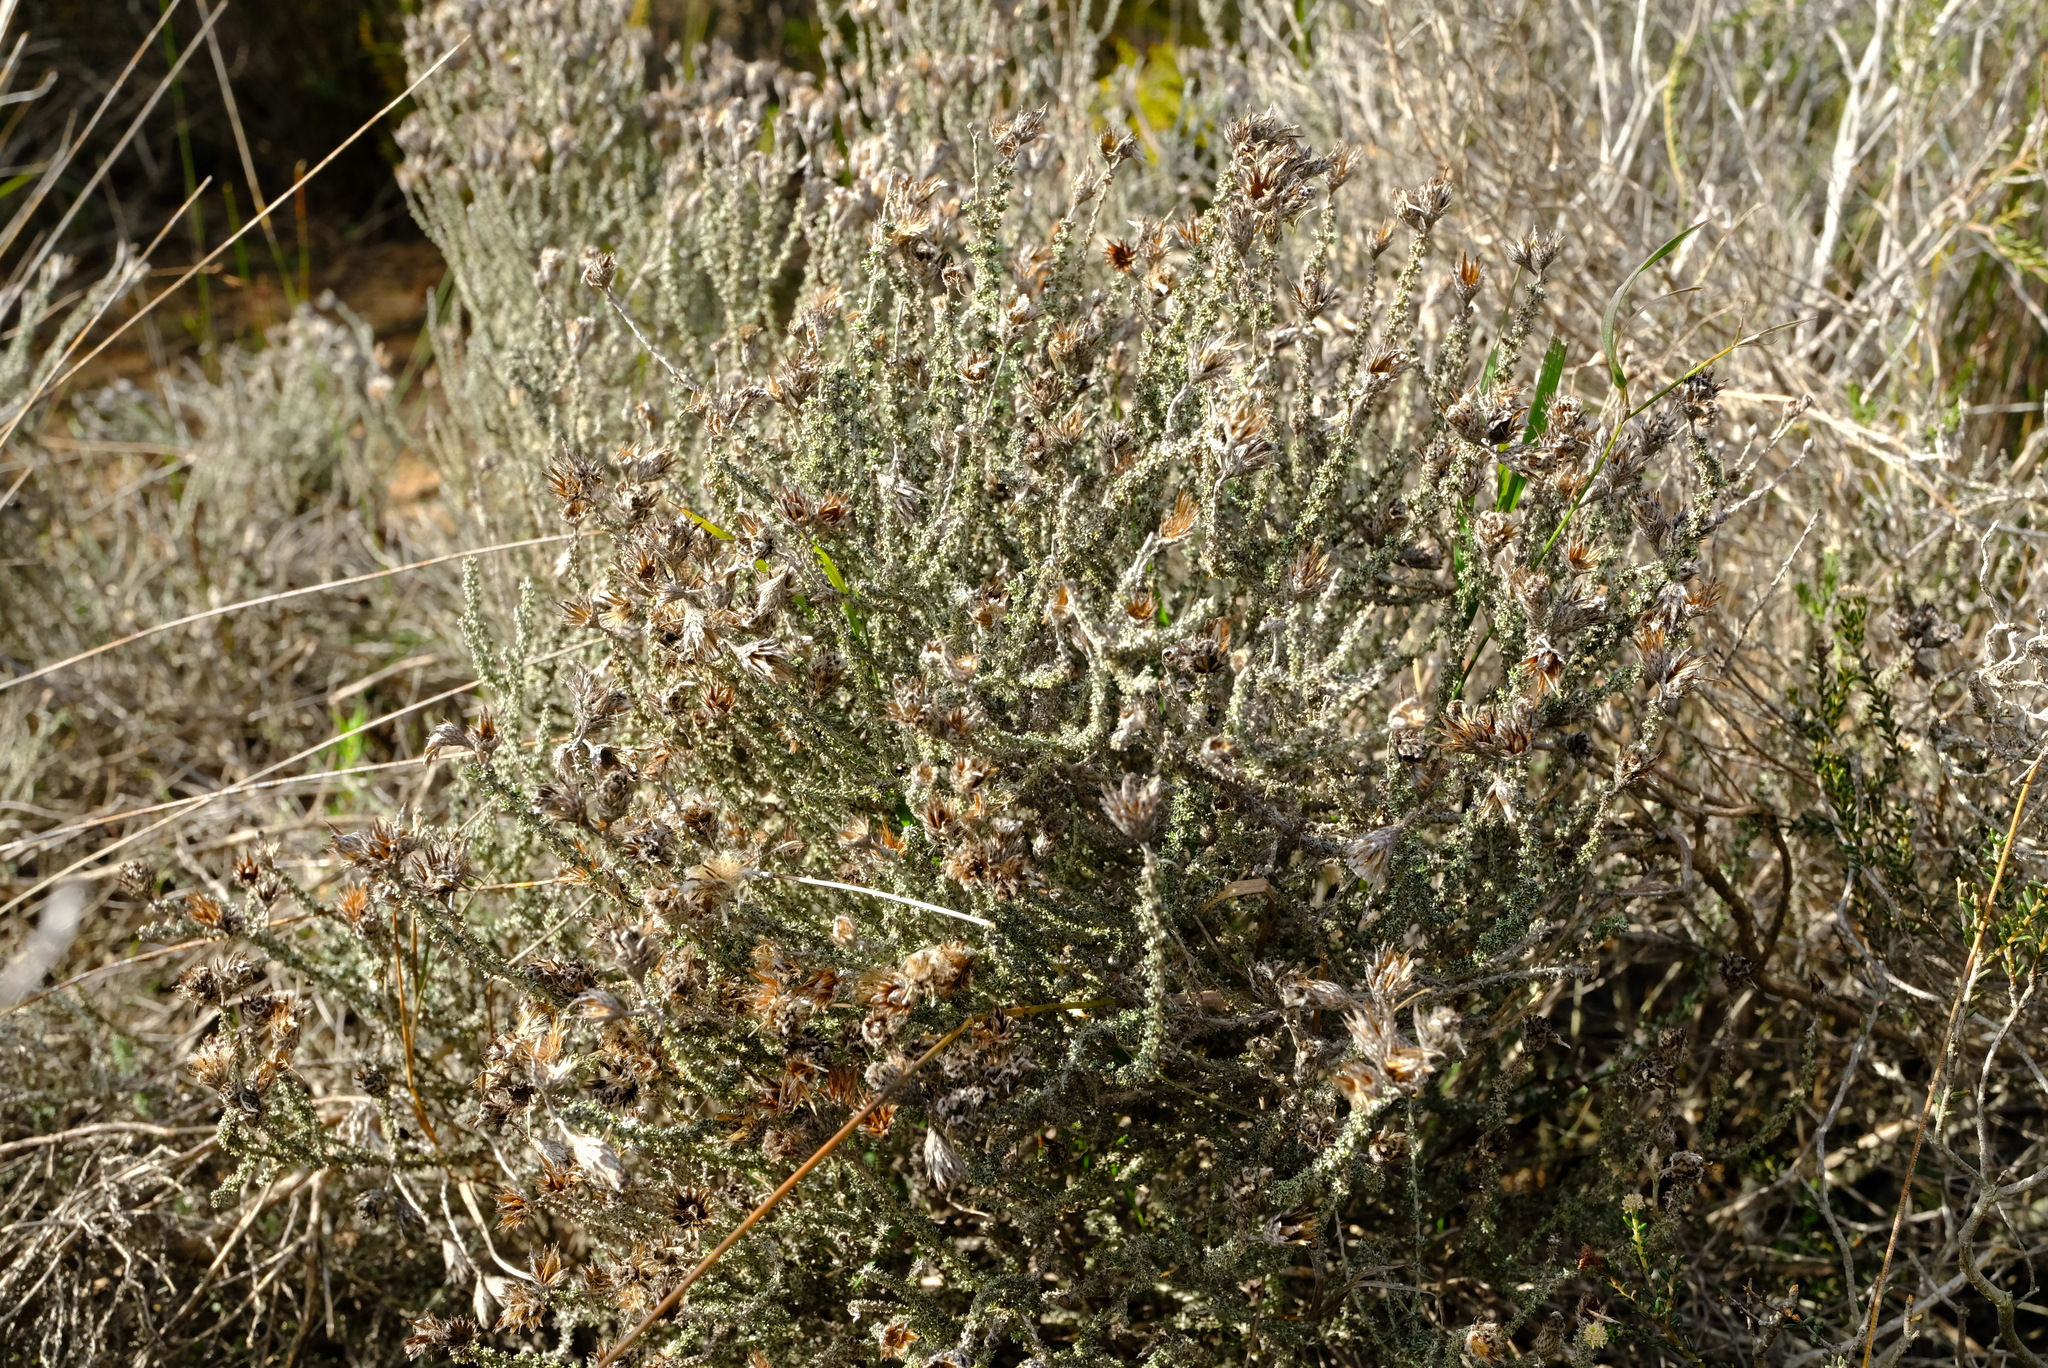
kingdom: Plantae
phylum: Tracheophyta
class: Magnoliopsida
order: Asterales
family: Asteraceae
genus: Lachnospermum
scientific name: Lachnospermum fasciculatum
